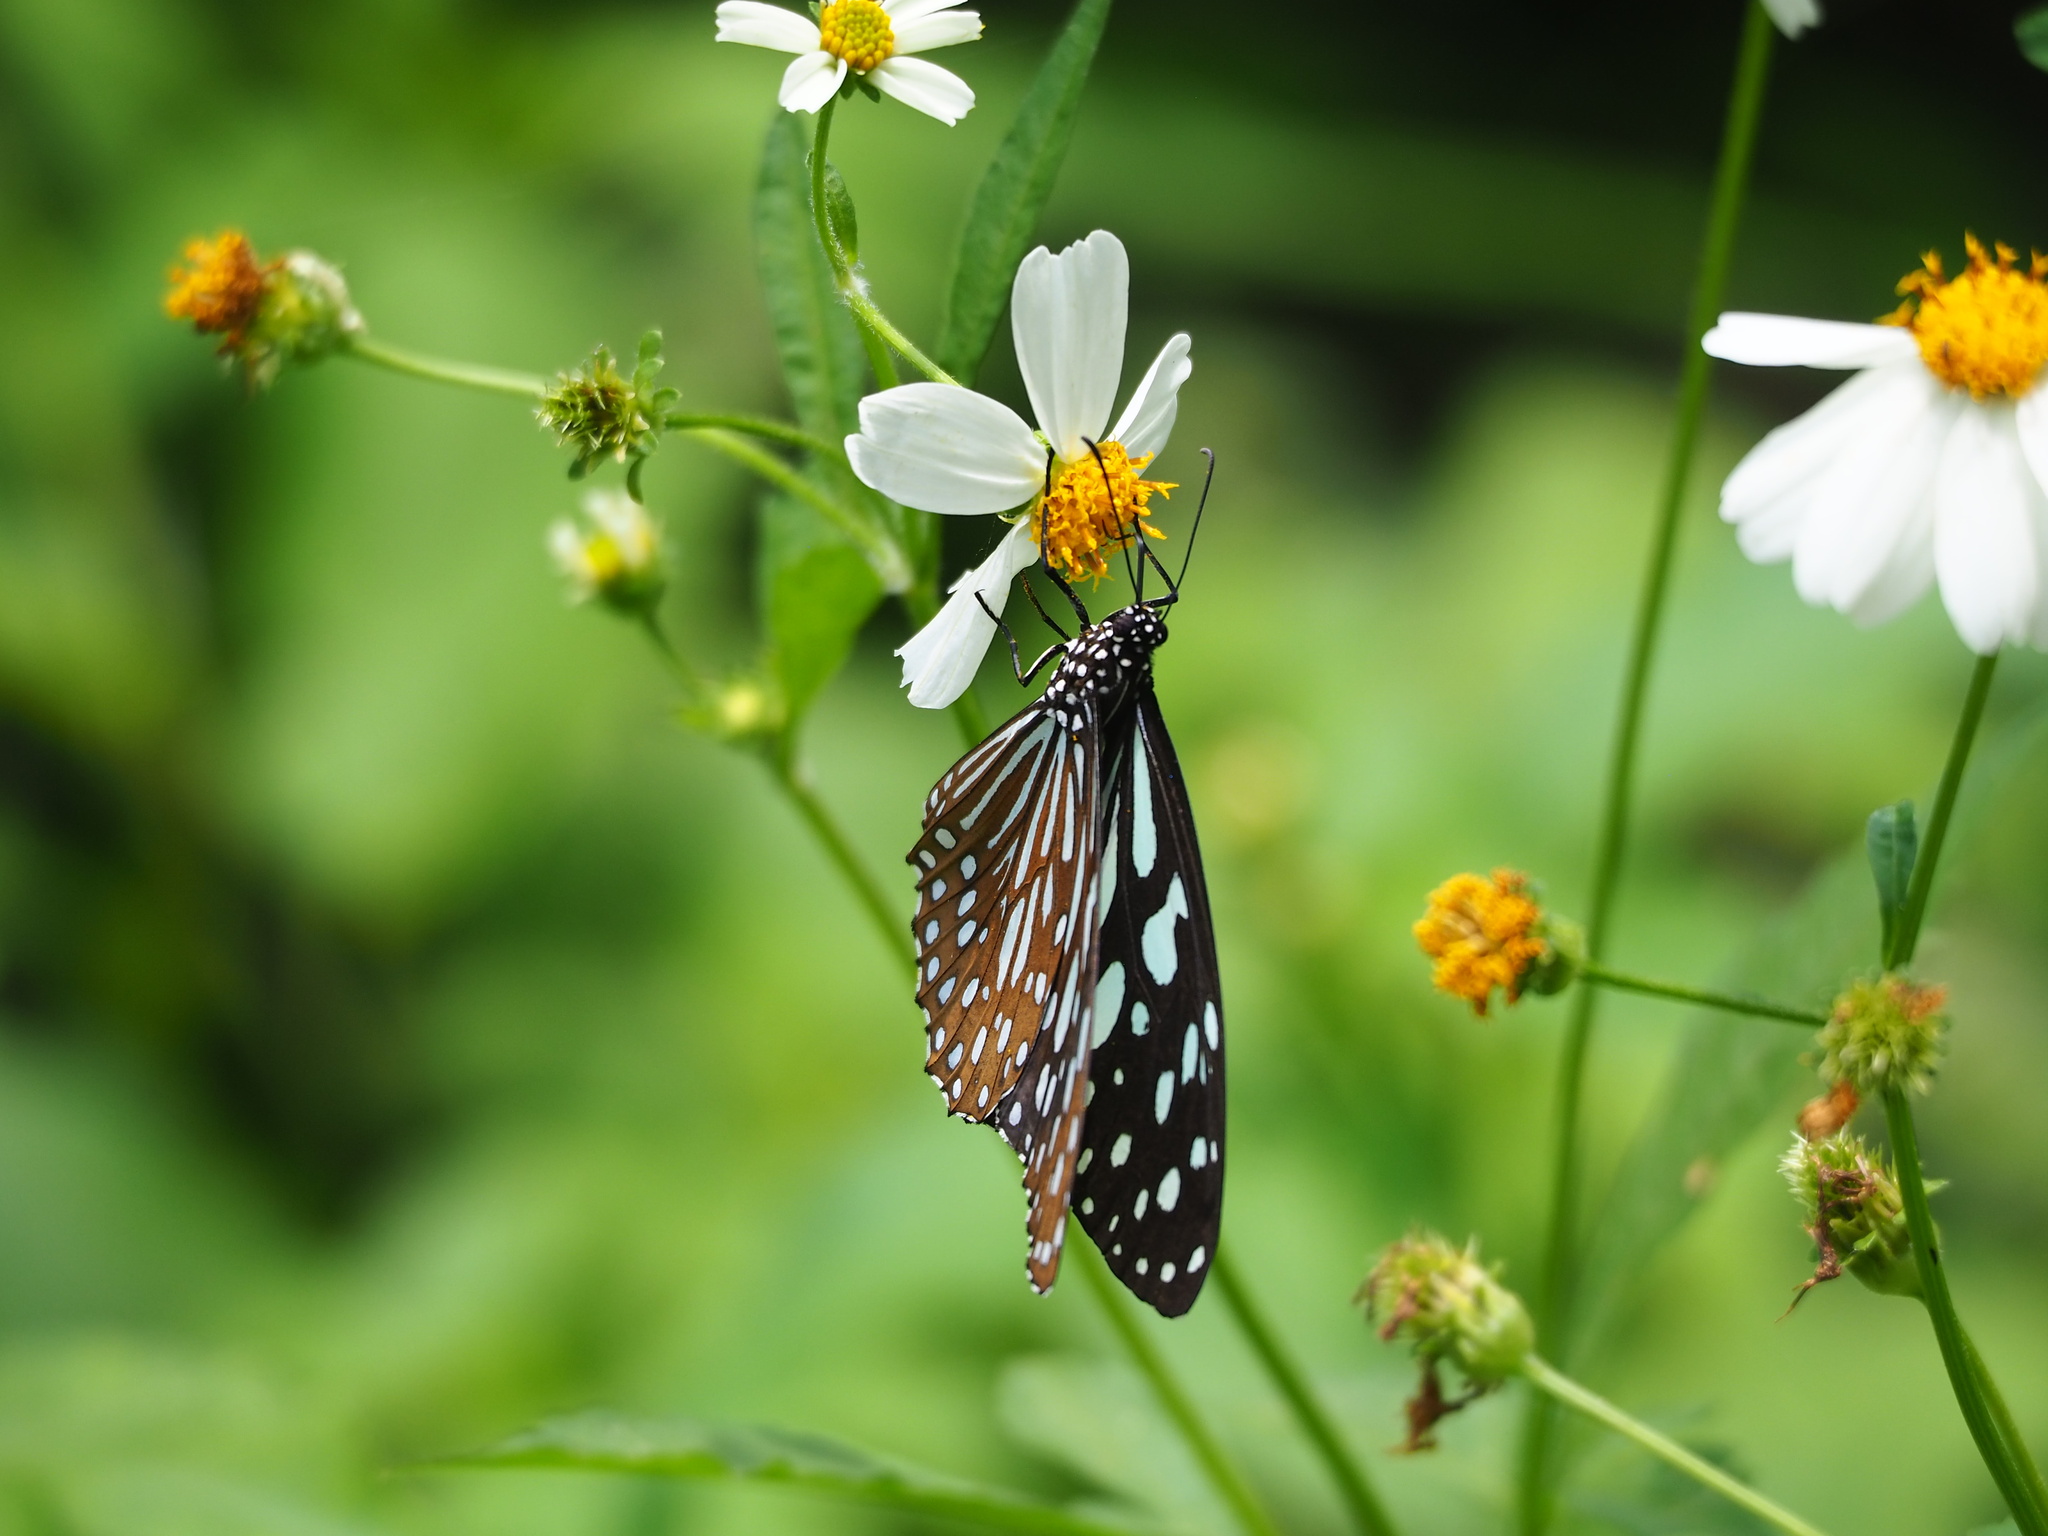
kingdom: Animalia
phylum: Arthropoda
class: Insecta
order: Lepidoptera
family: Nymphalidae
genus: Tirumala
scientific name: Tirumala limniace
